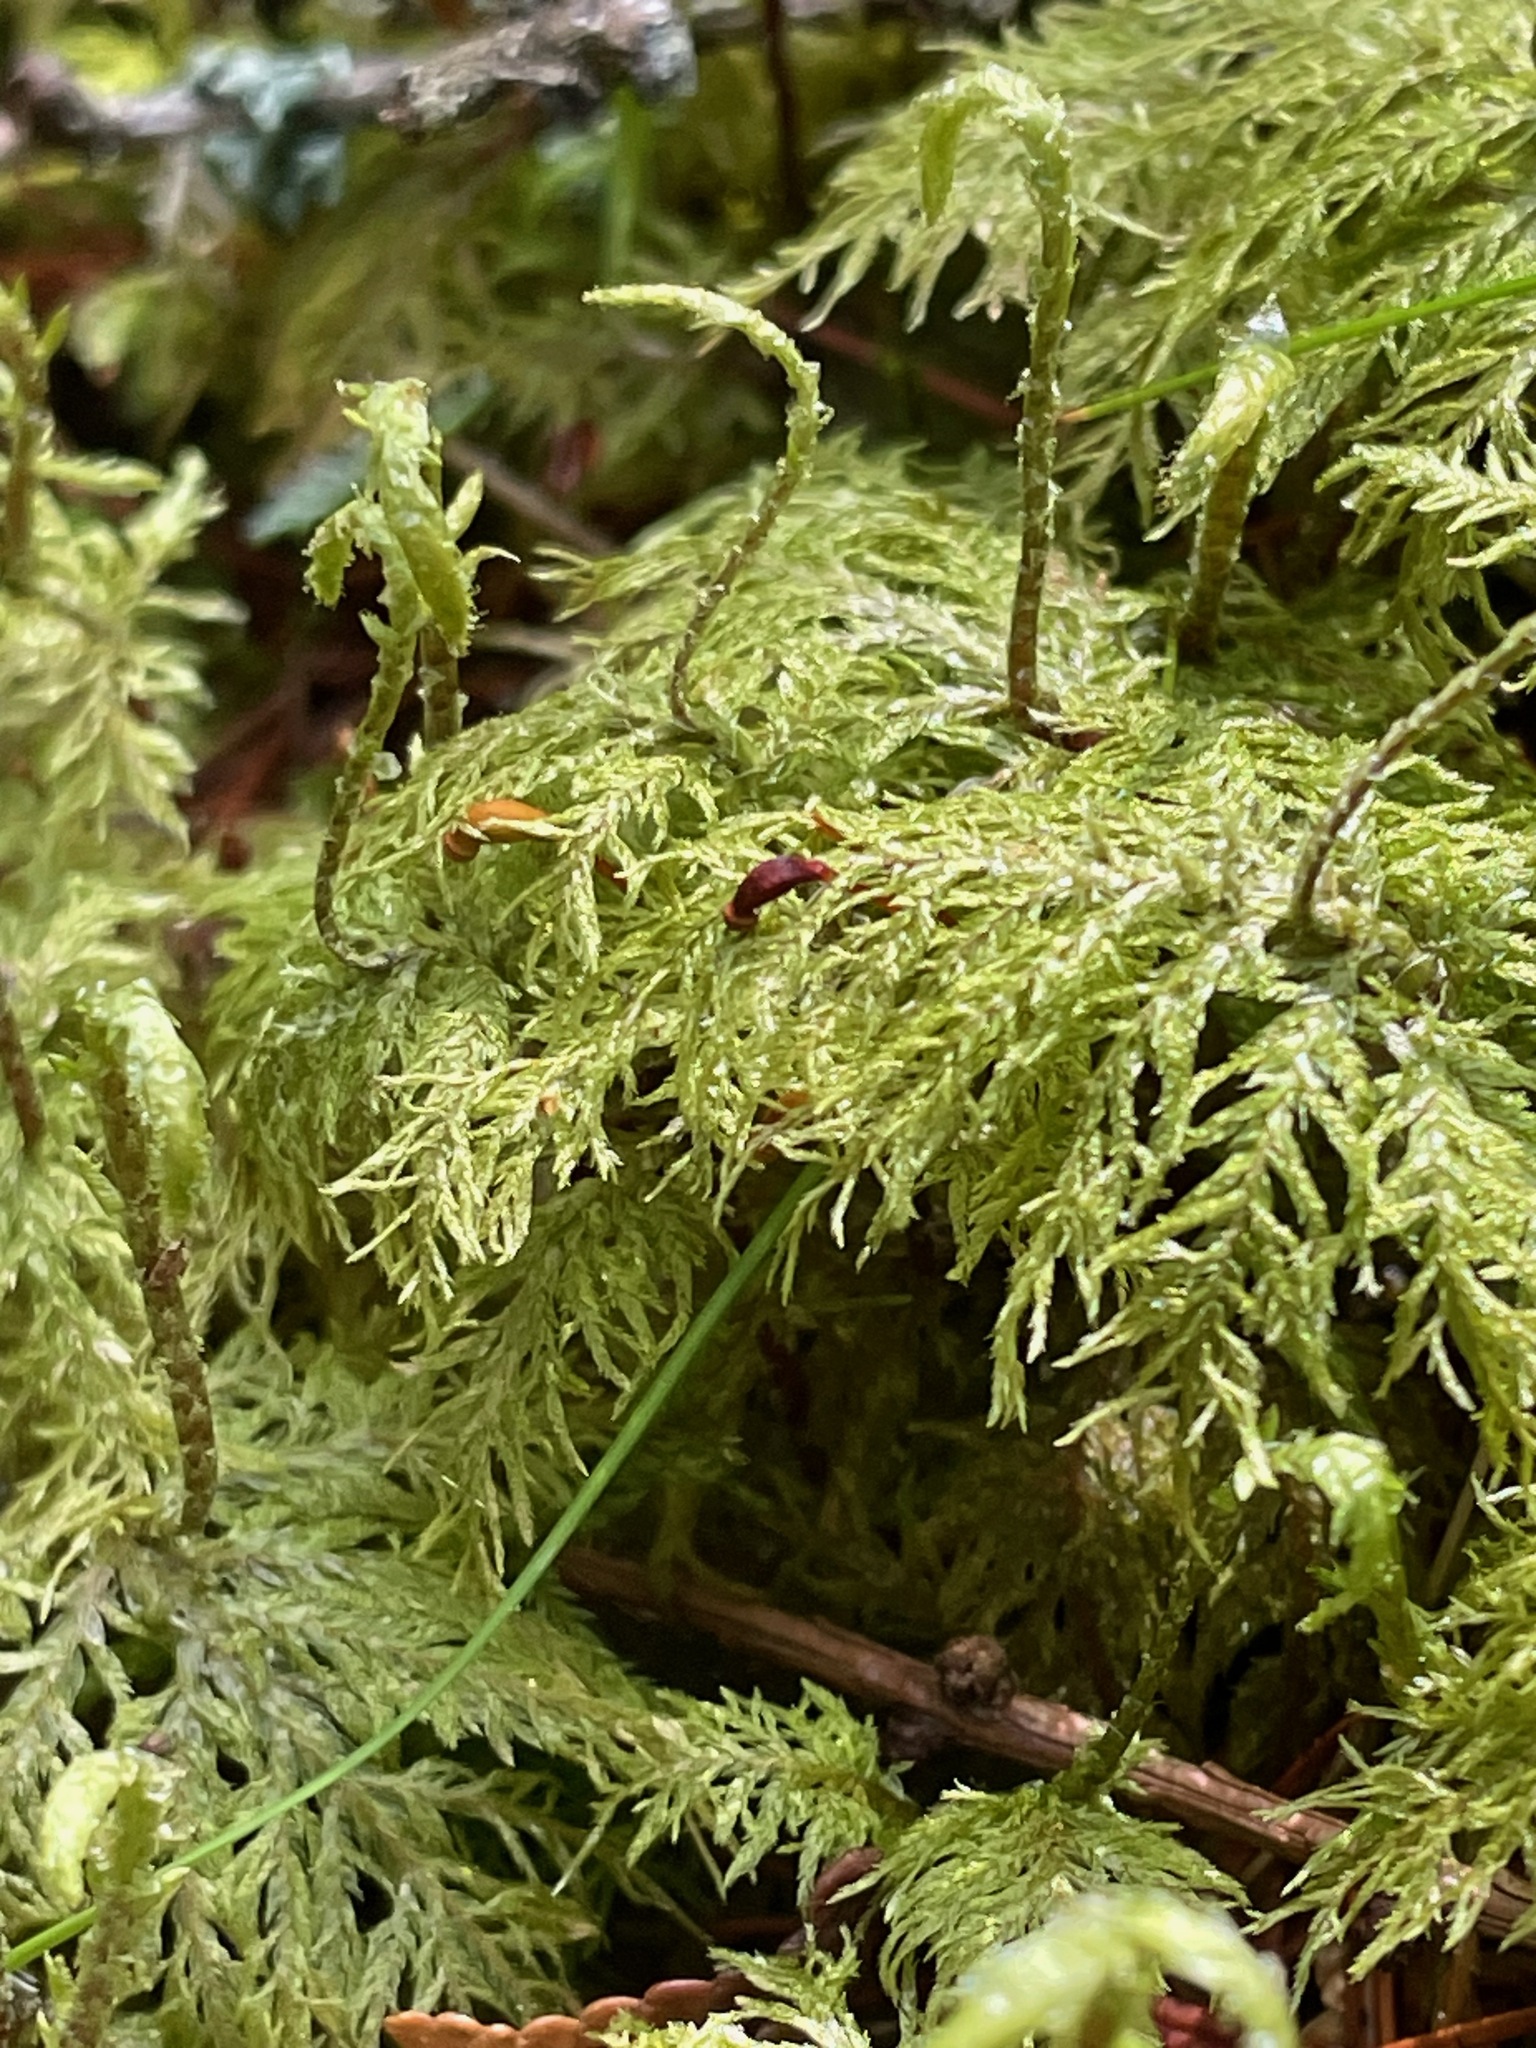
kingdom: Plantae
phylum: Bryophyta
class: Bryopsida
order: Hypnales
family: Hylocomiaceae
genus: Hylocomium
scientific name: Hylocomium splendens
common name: Stairstep moss
